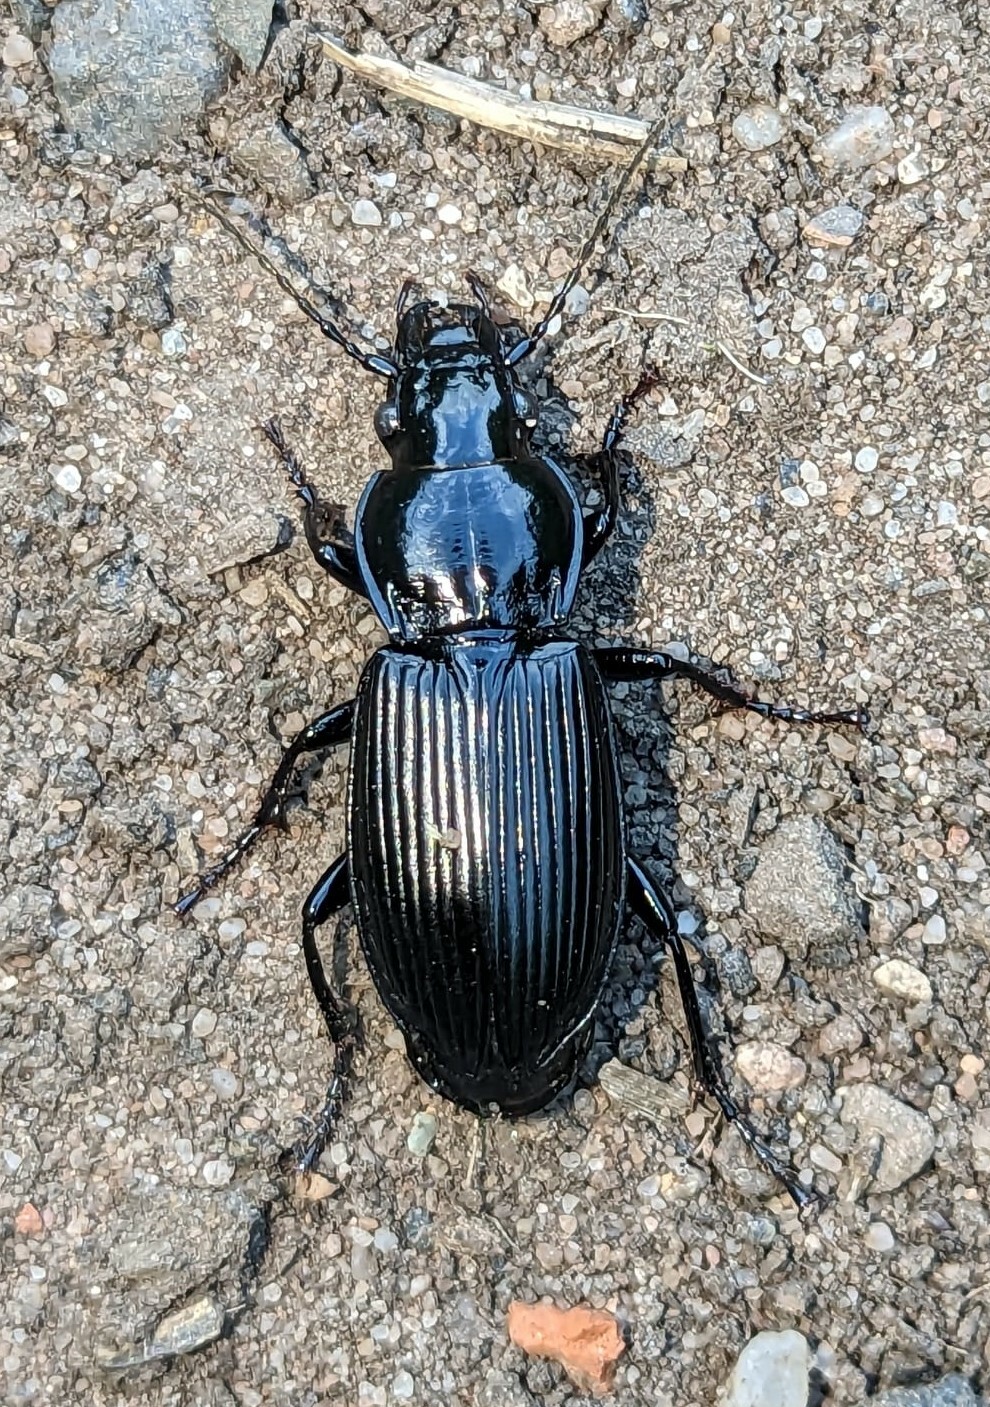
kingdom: Animalia
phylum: Arthropoda
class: Insecta
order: Coleoptera
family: Carabidae
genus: Pterostichus
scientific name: Pterostichus melanarius
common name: European dark harp ground beetle
